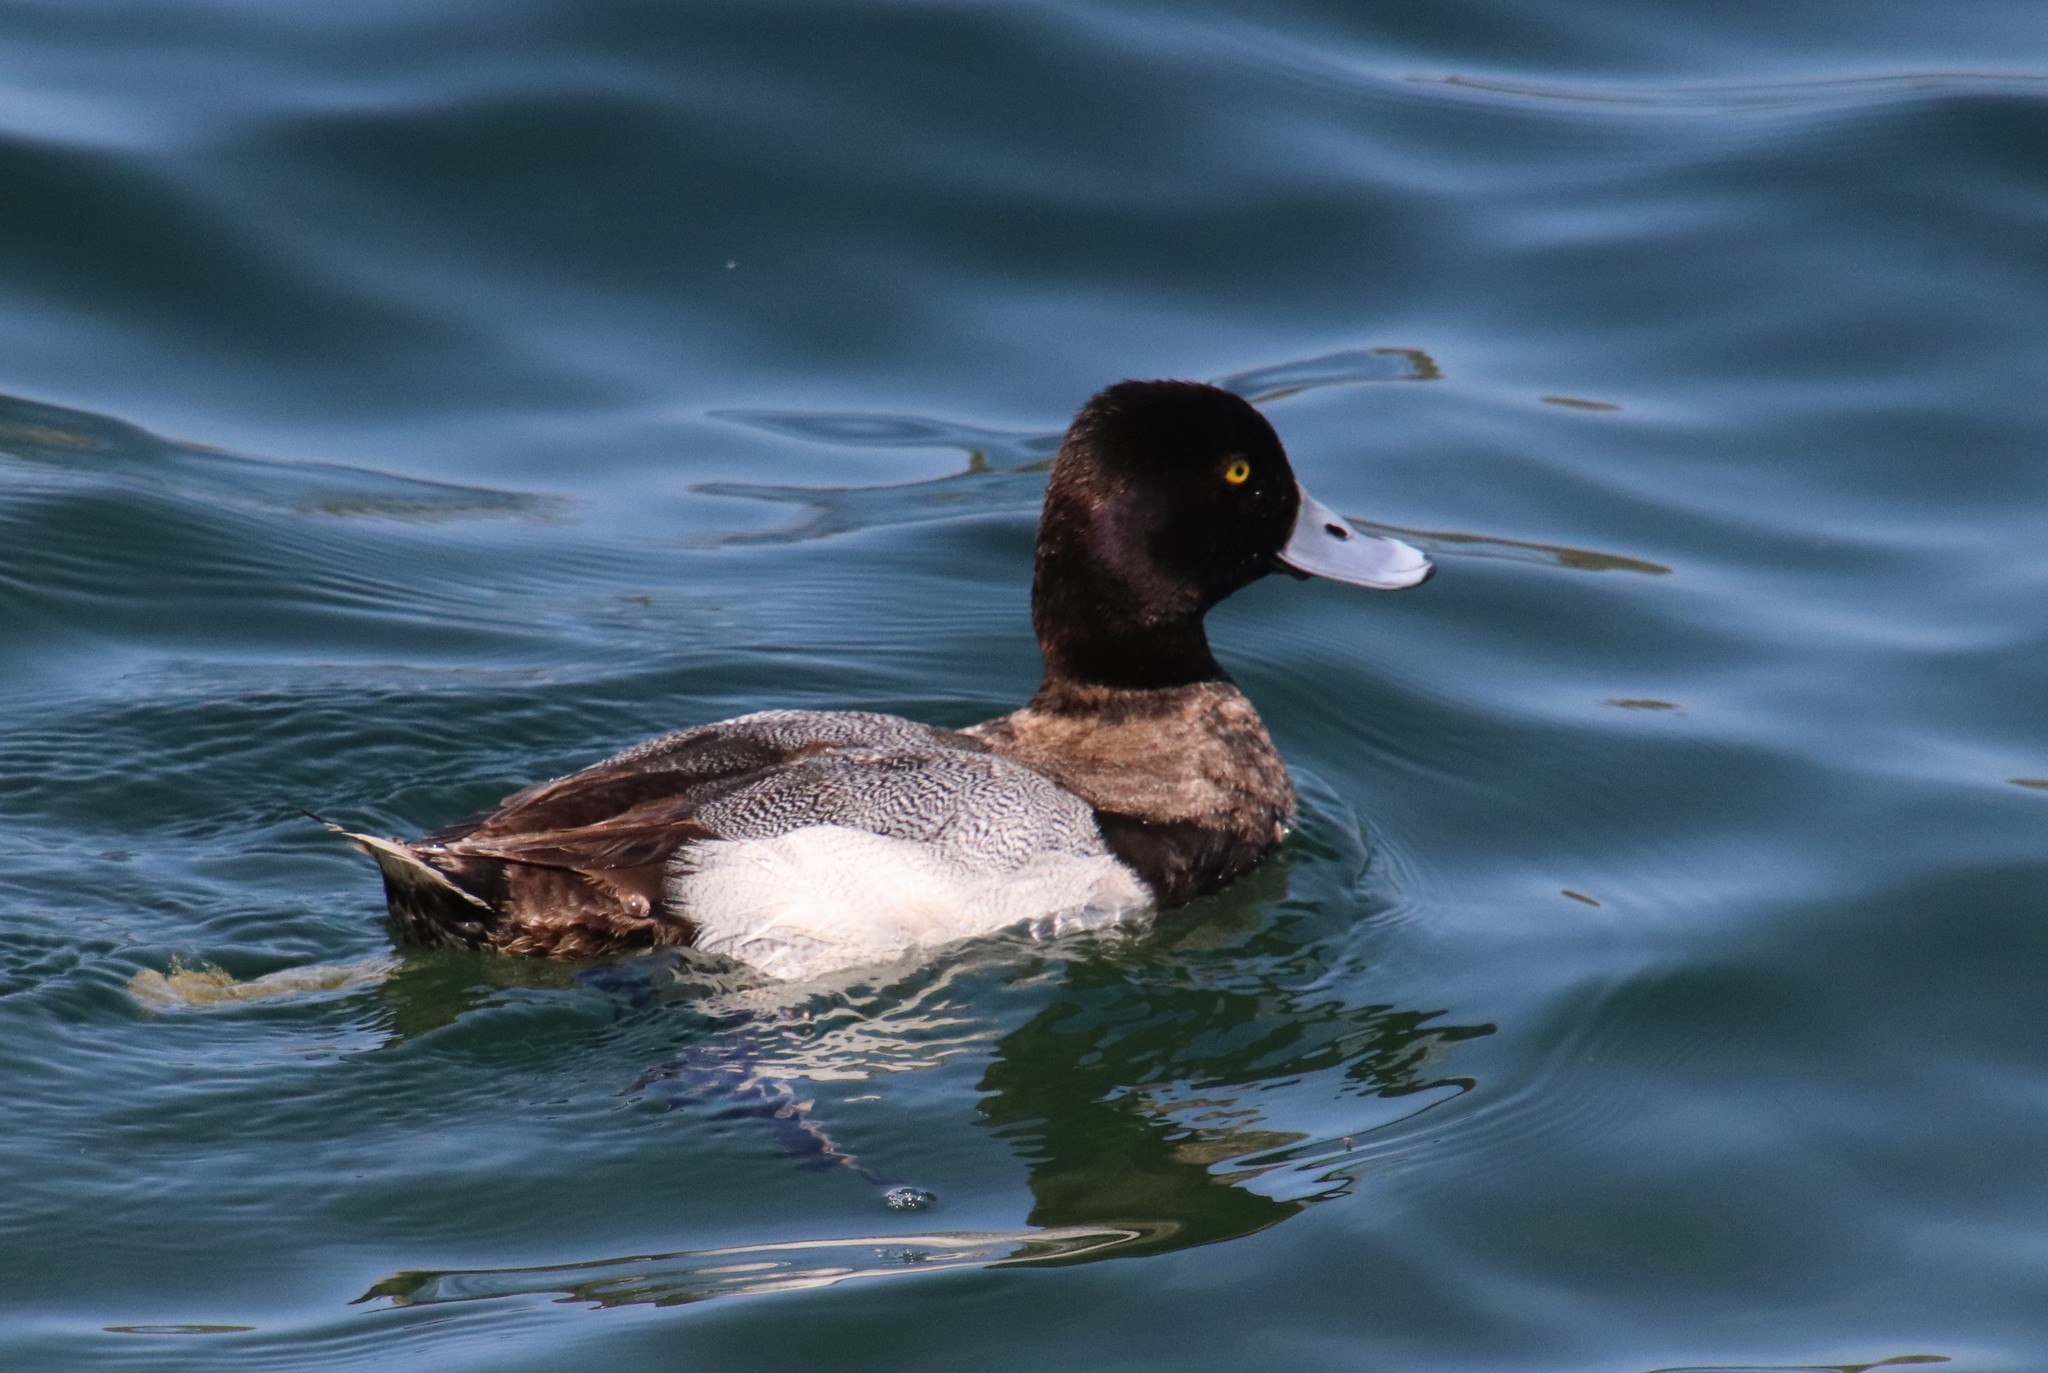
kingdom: Animalia
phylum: Chordata
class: Aves
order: Anseriformes
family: Anatidae
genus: Aythya
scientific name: Aythya affinis
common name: Lesser scaup
